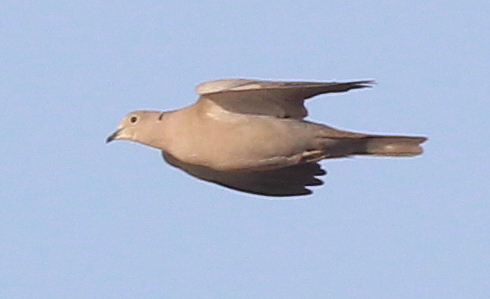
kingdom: Animalia
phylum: Chordata
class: Aves
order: Columbiformes
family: Columbidae
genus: Streptopelia
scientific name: Streptopelia decaocto
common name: Eurasian collared dove
